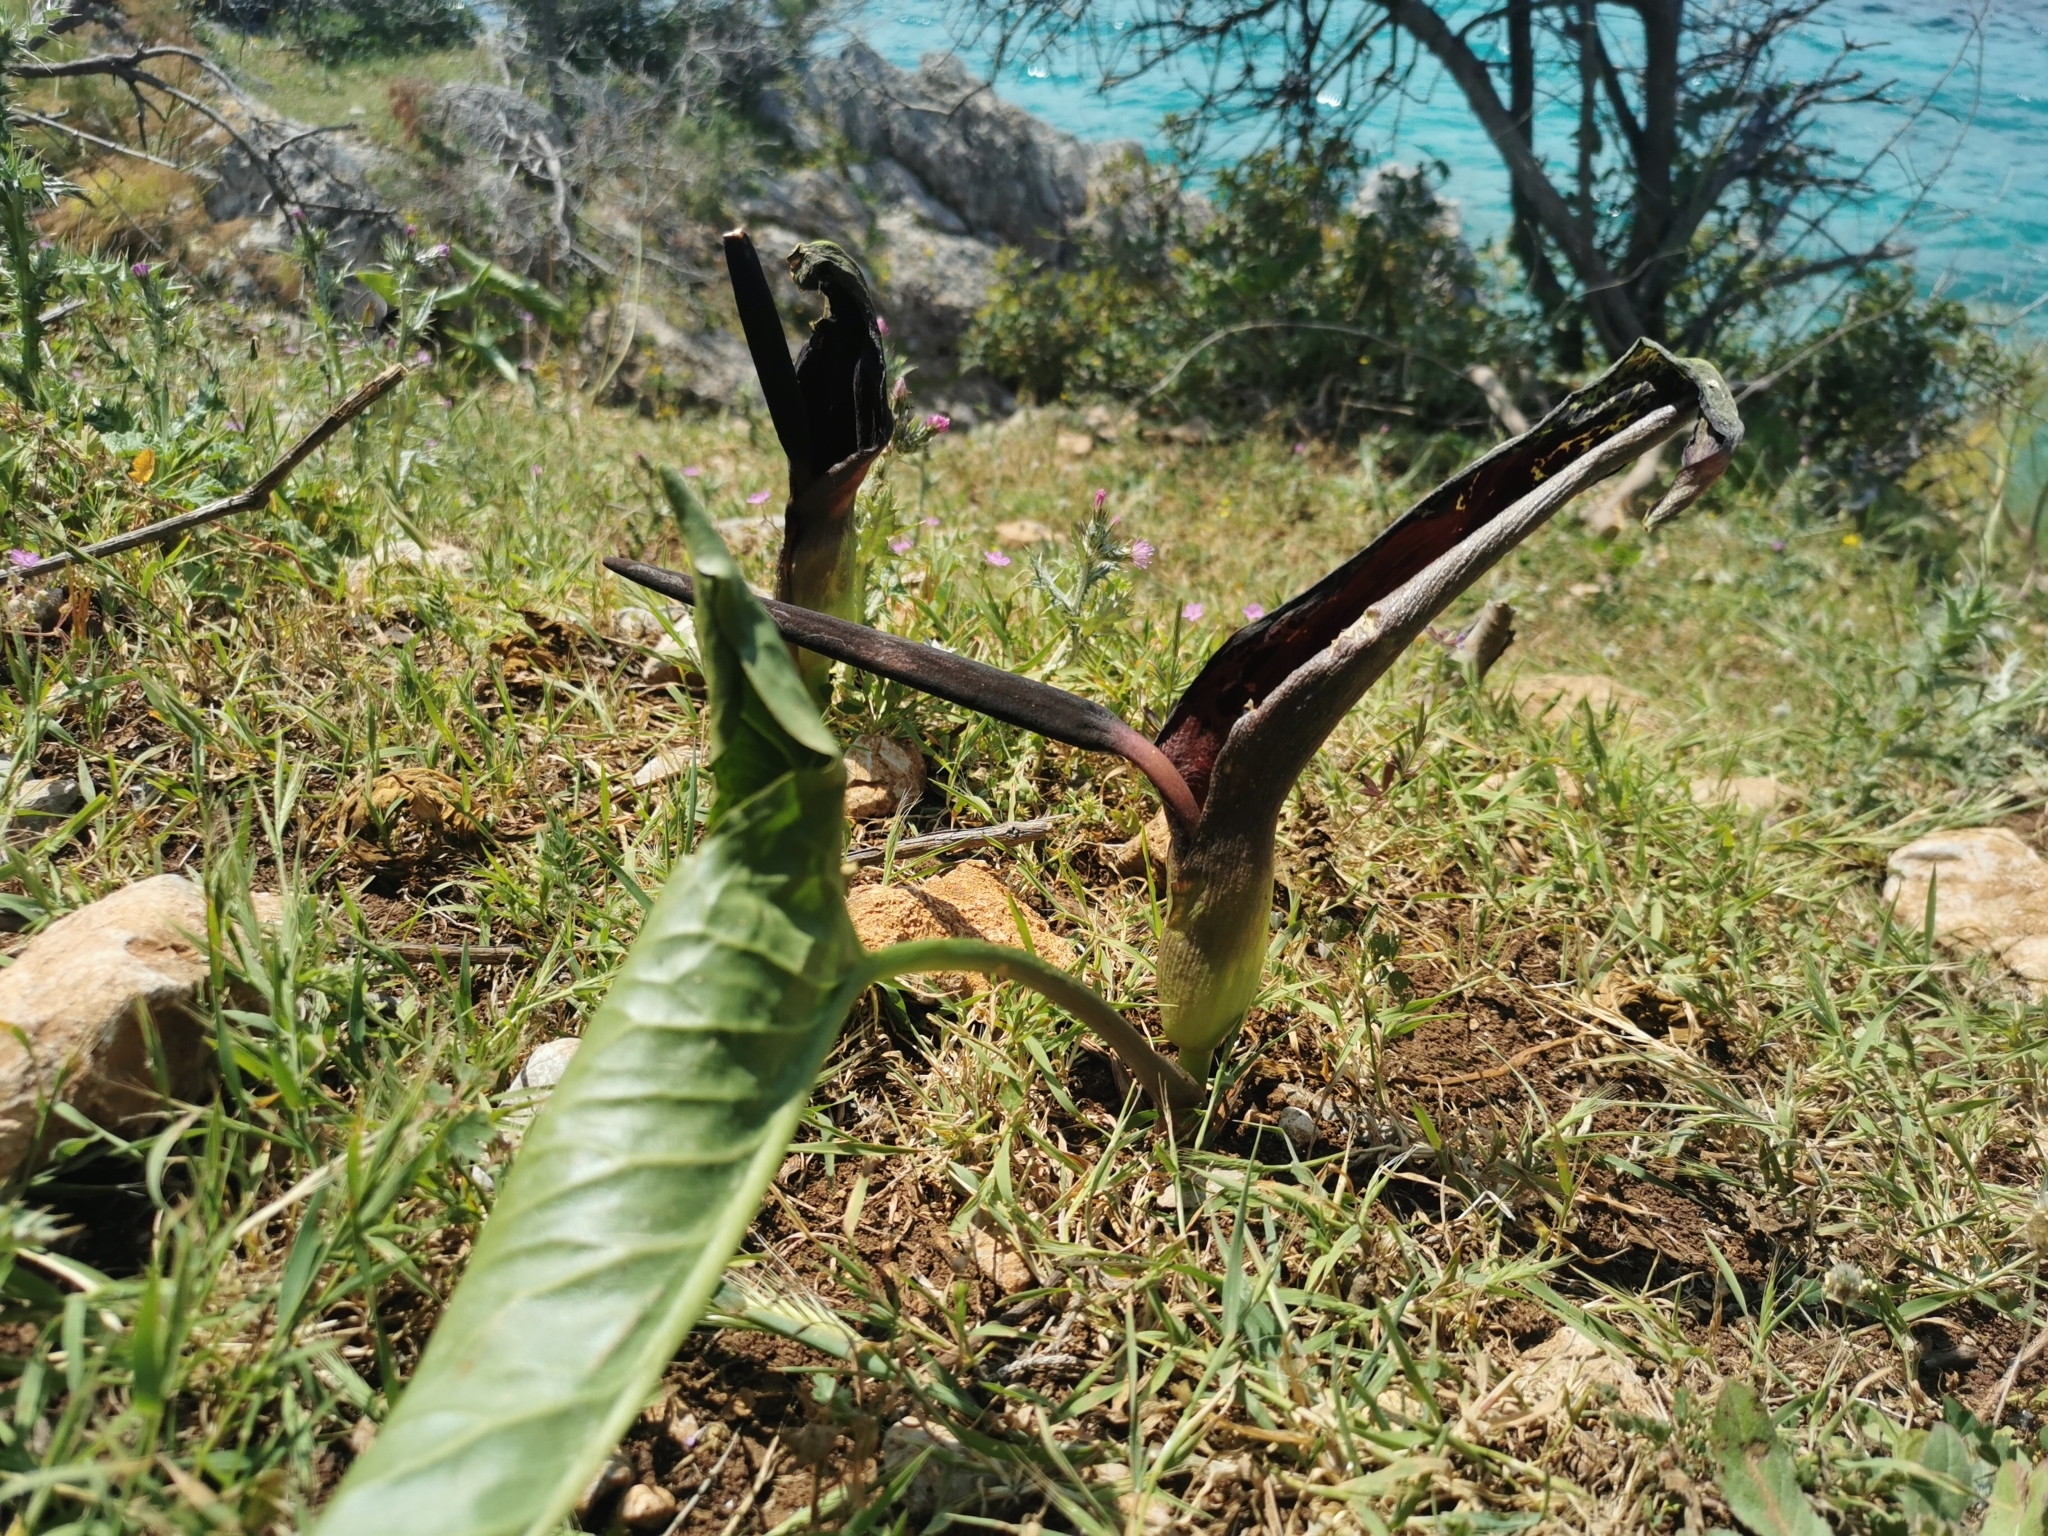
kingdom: Plantae
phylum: Tracheophyta
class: Liliopsida
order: Alismatales
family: Araceae
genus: Arum
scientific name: Arum dioscoridis
